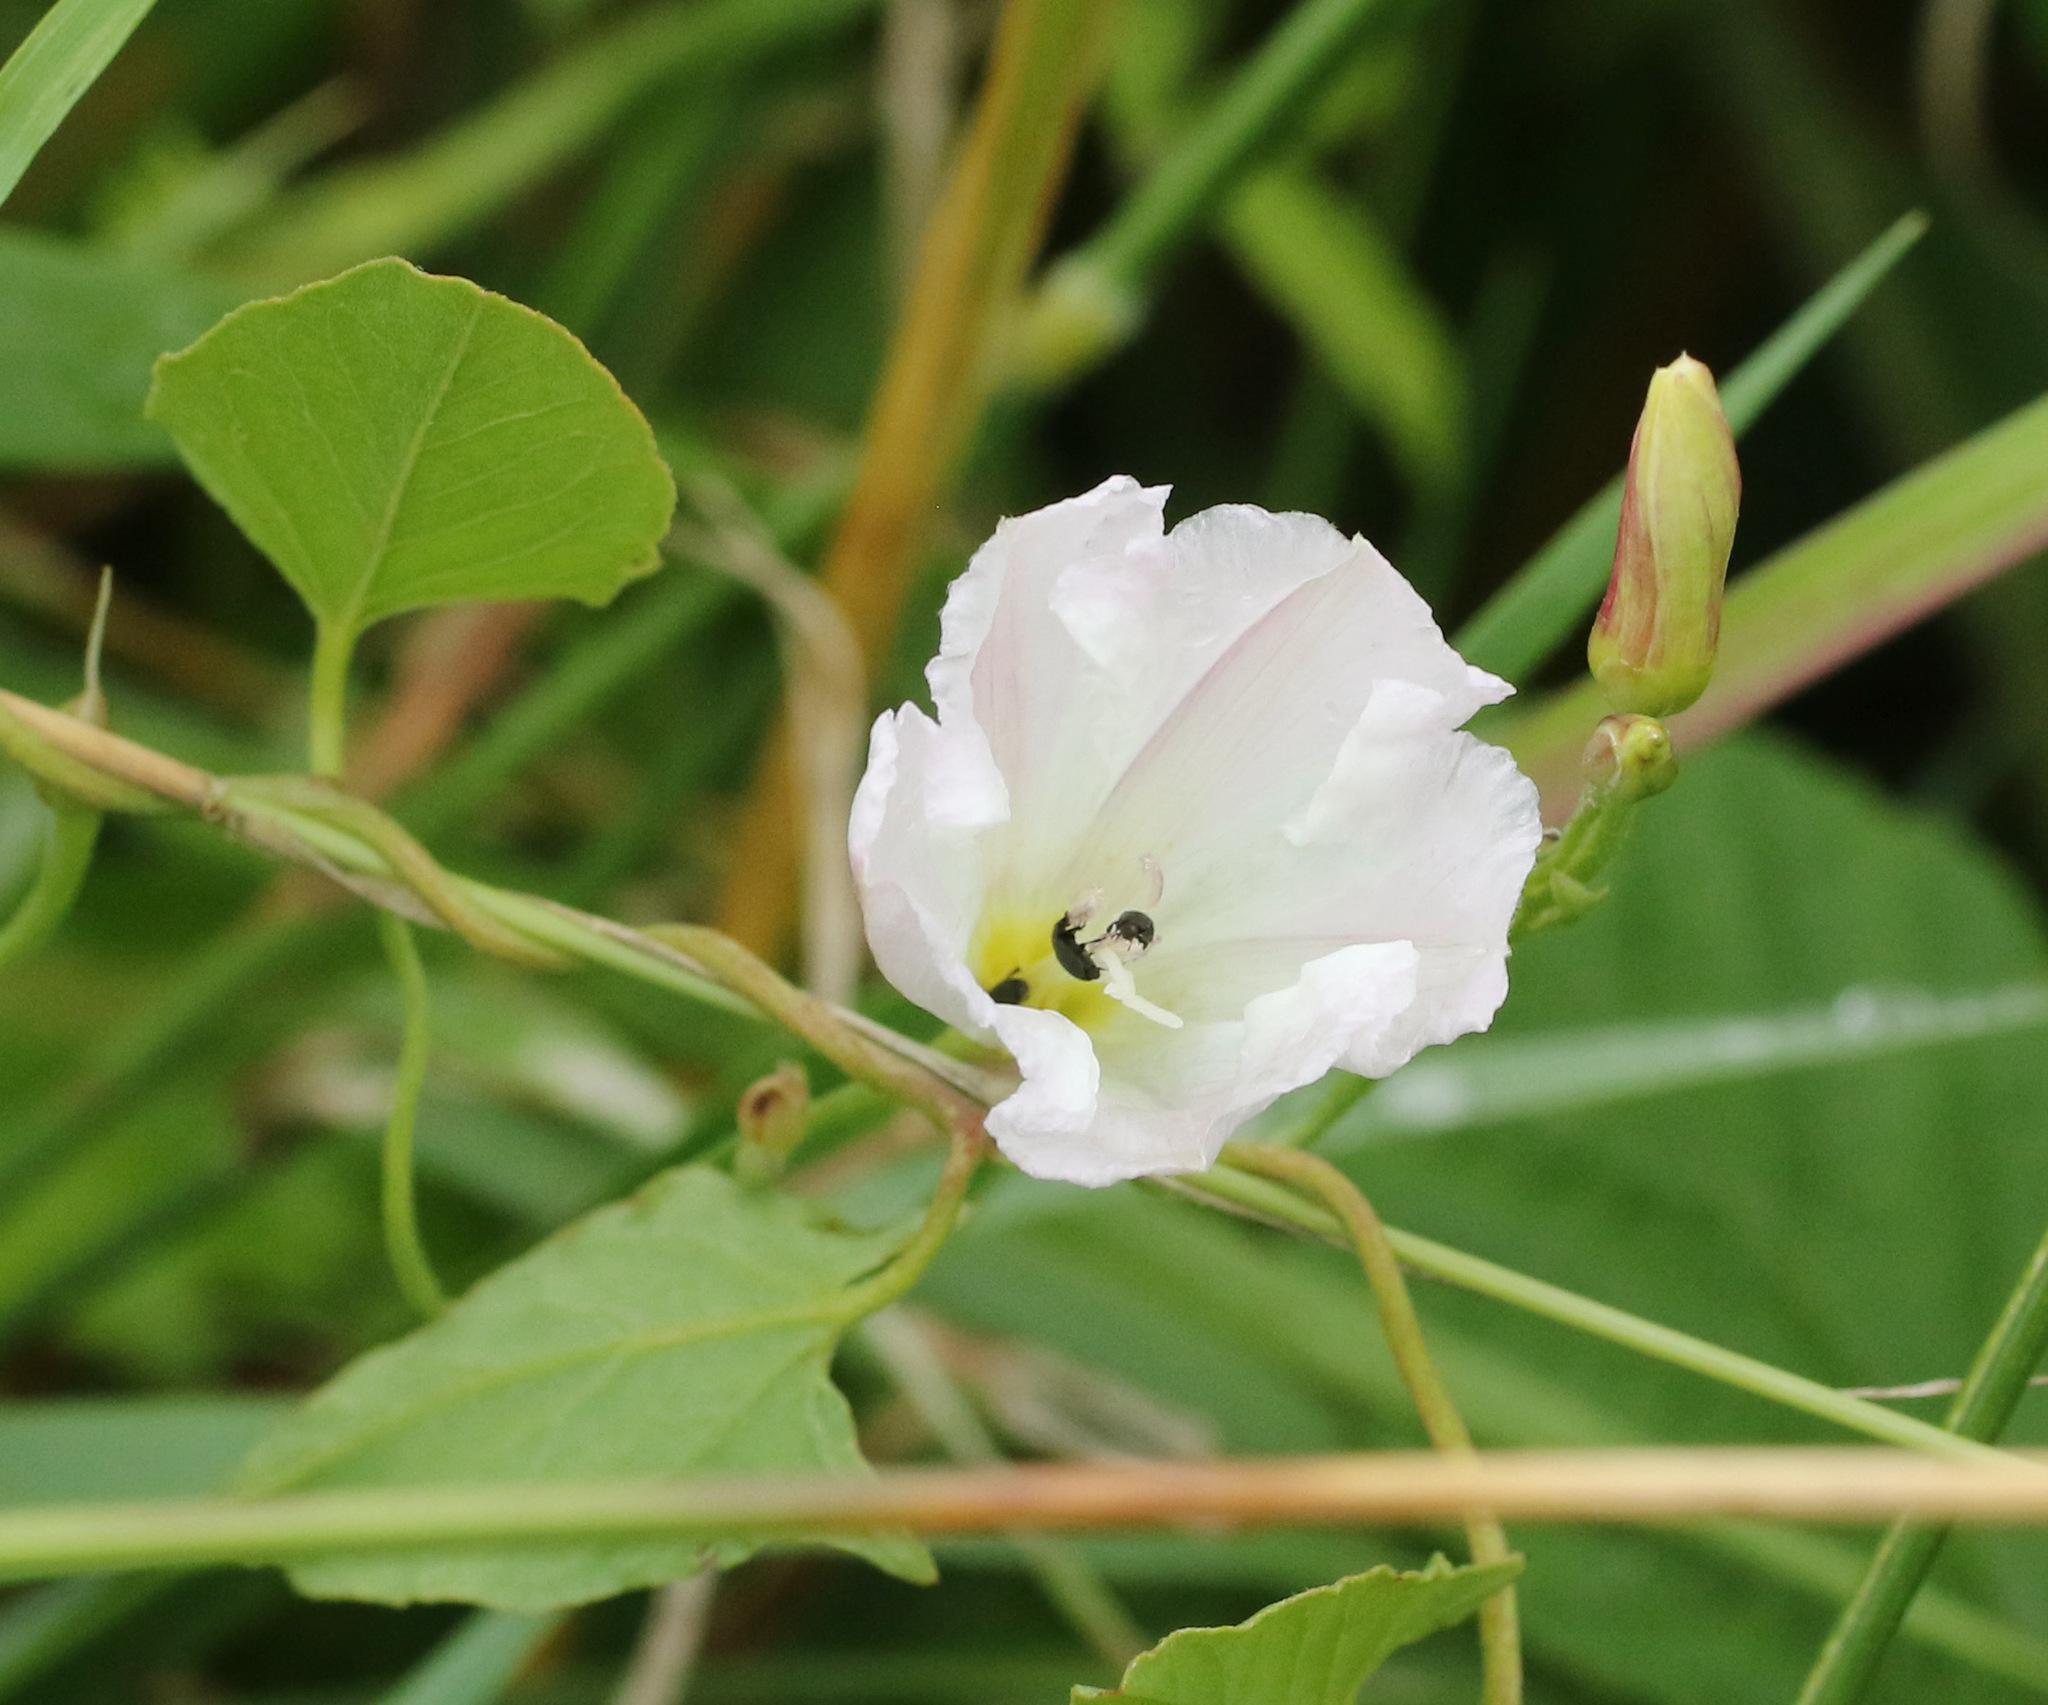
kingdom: Plantae
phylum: Tracheophyta
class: Magnoliopsida
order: Solanales
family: Convolvulaceae
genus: Convolvulus
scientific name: Convolvulus arvensis
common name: Field bindweed
